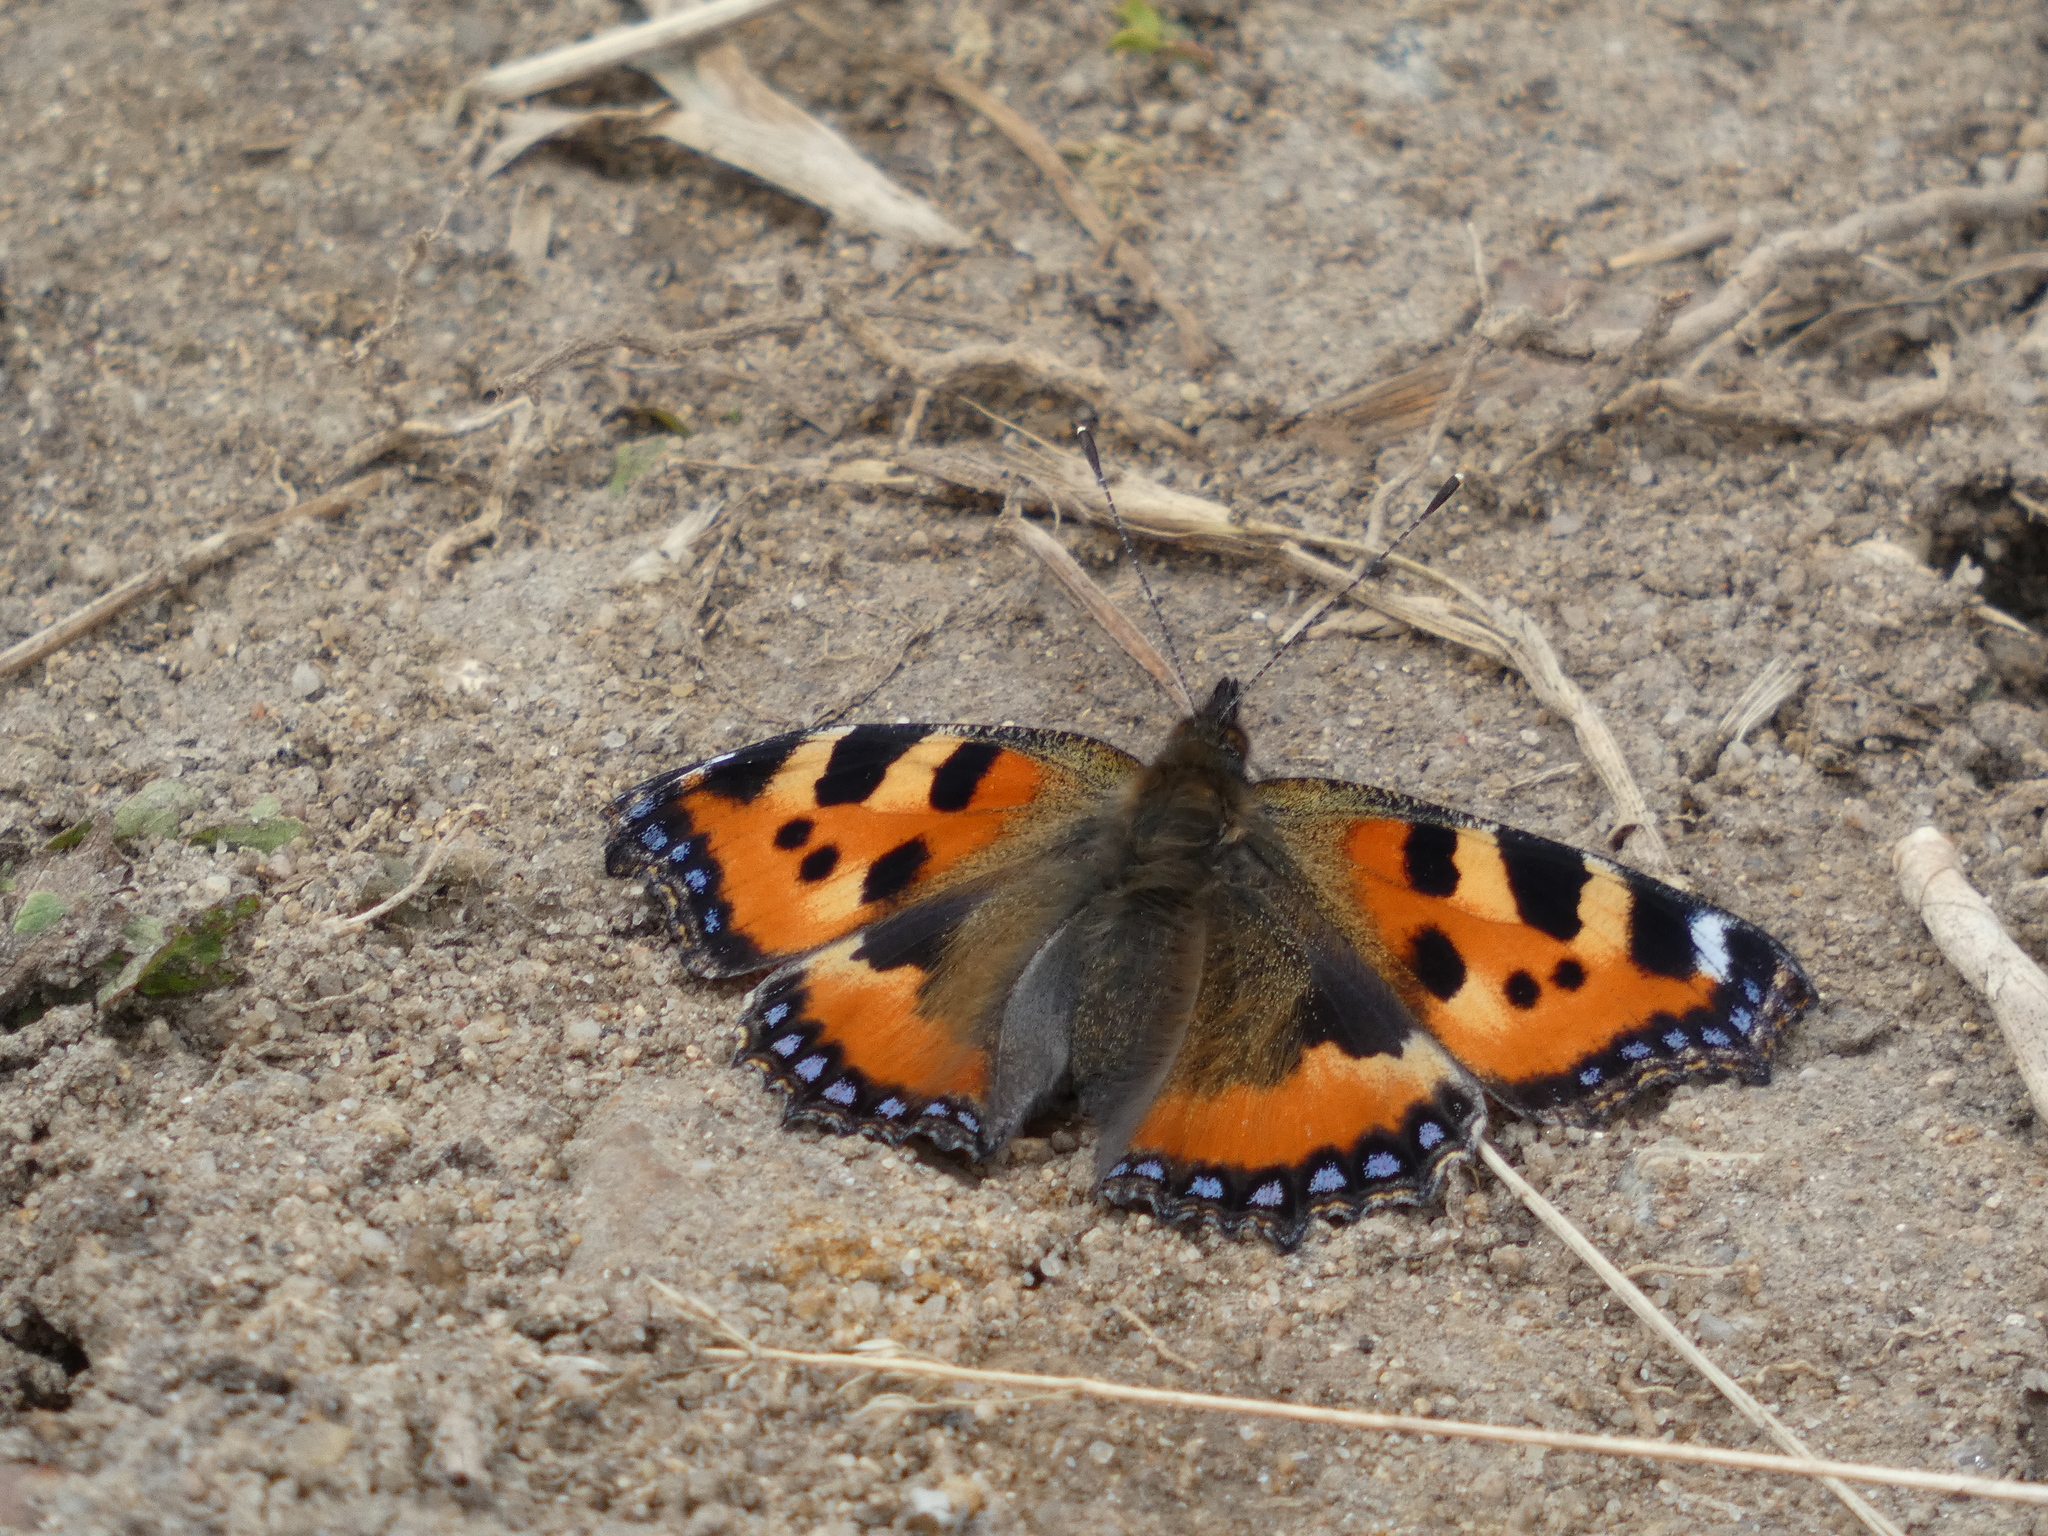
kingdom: Animalia
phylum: Arthropoda
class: Insecta
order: Lepidoptera
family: Nymphalidae
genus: Aglais
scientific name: Aglais urticae
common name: Small tortoiseshell
